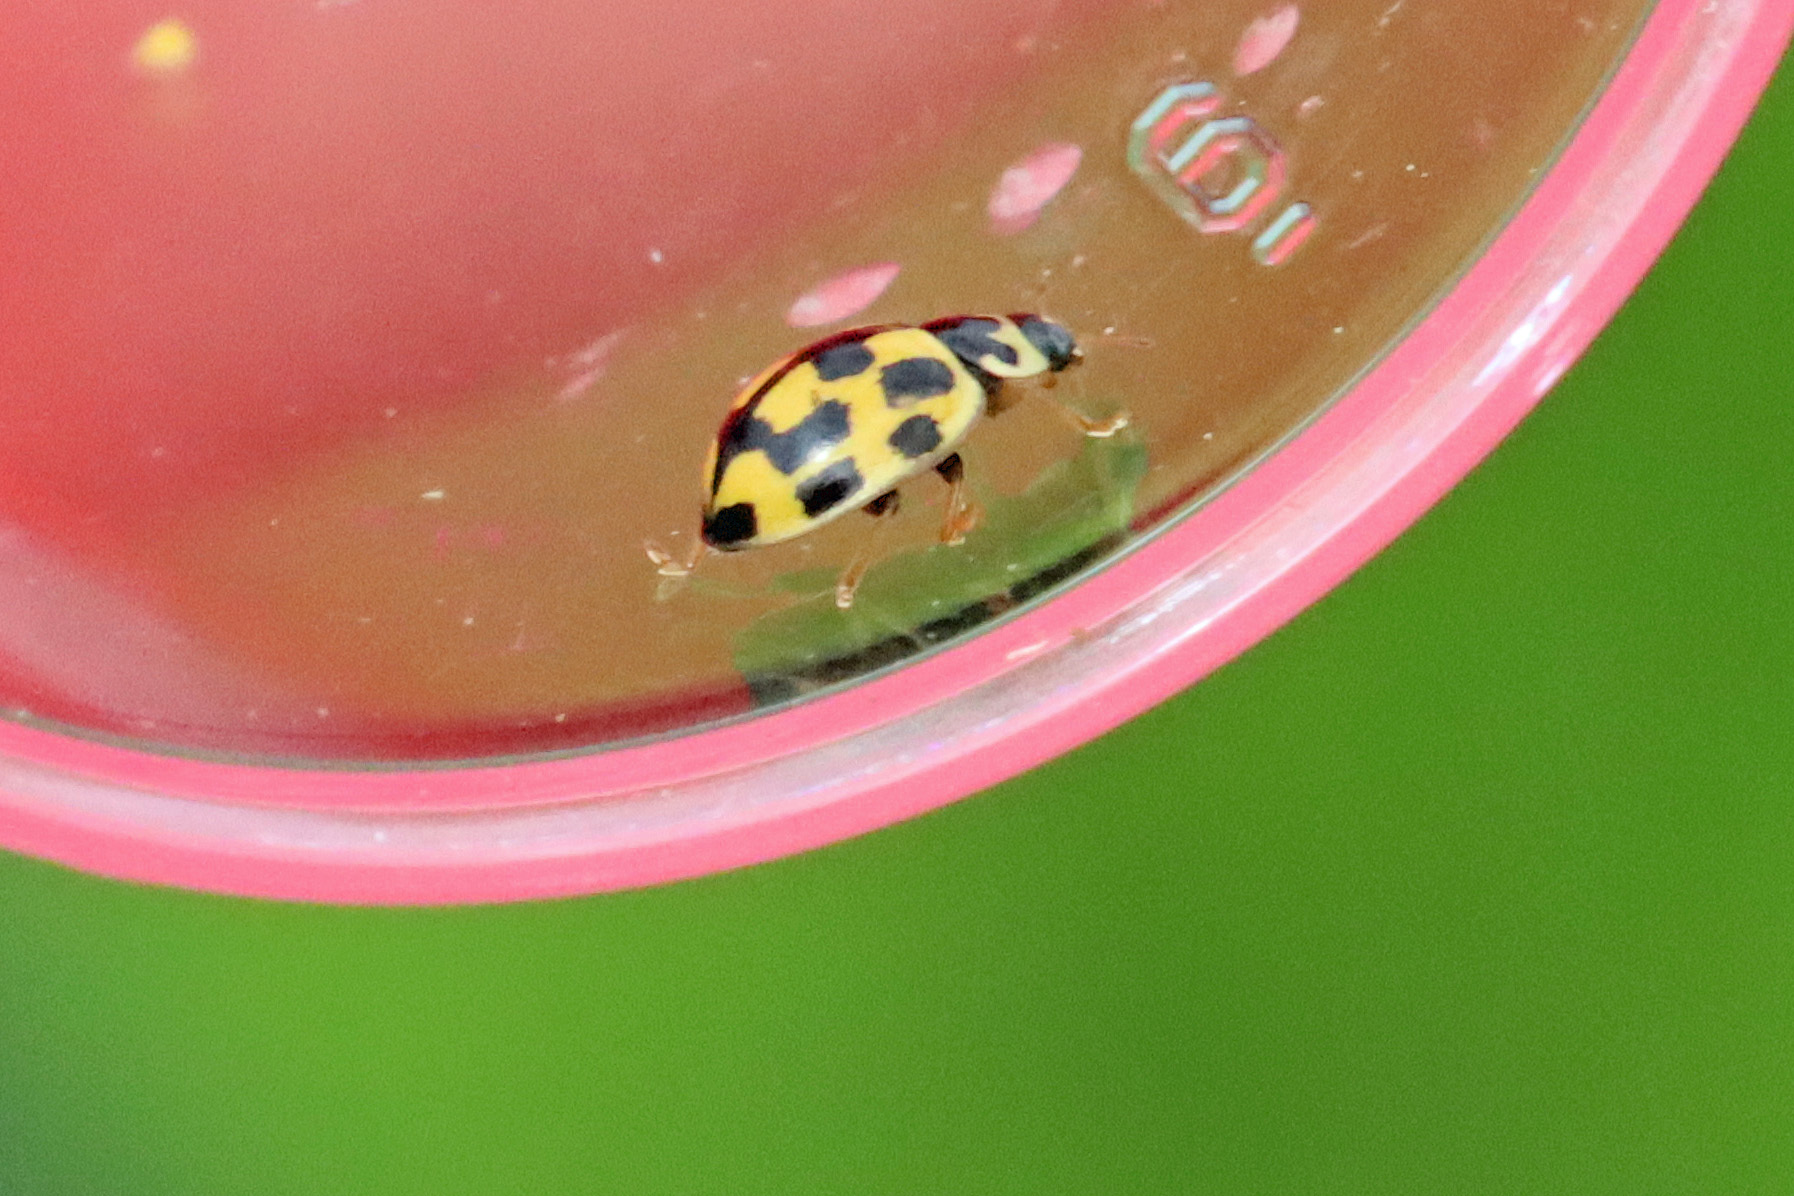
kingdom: Animalia
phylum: Arthropoda
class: Insecta
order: Coleoptera
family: Coccinellidae
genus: Propylaea
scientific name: Propylaea quatuordecimpunctata
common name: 14-spotted ladybird beetle
